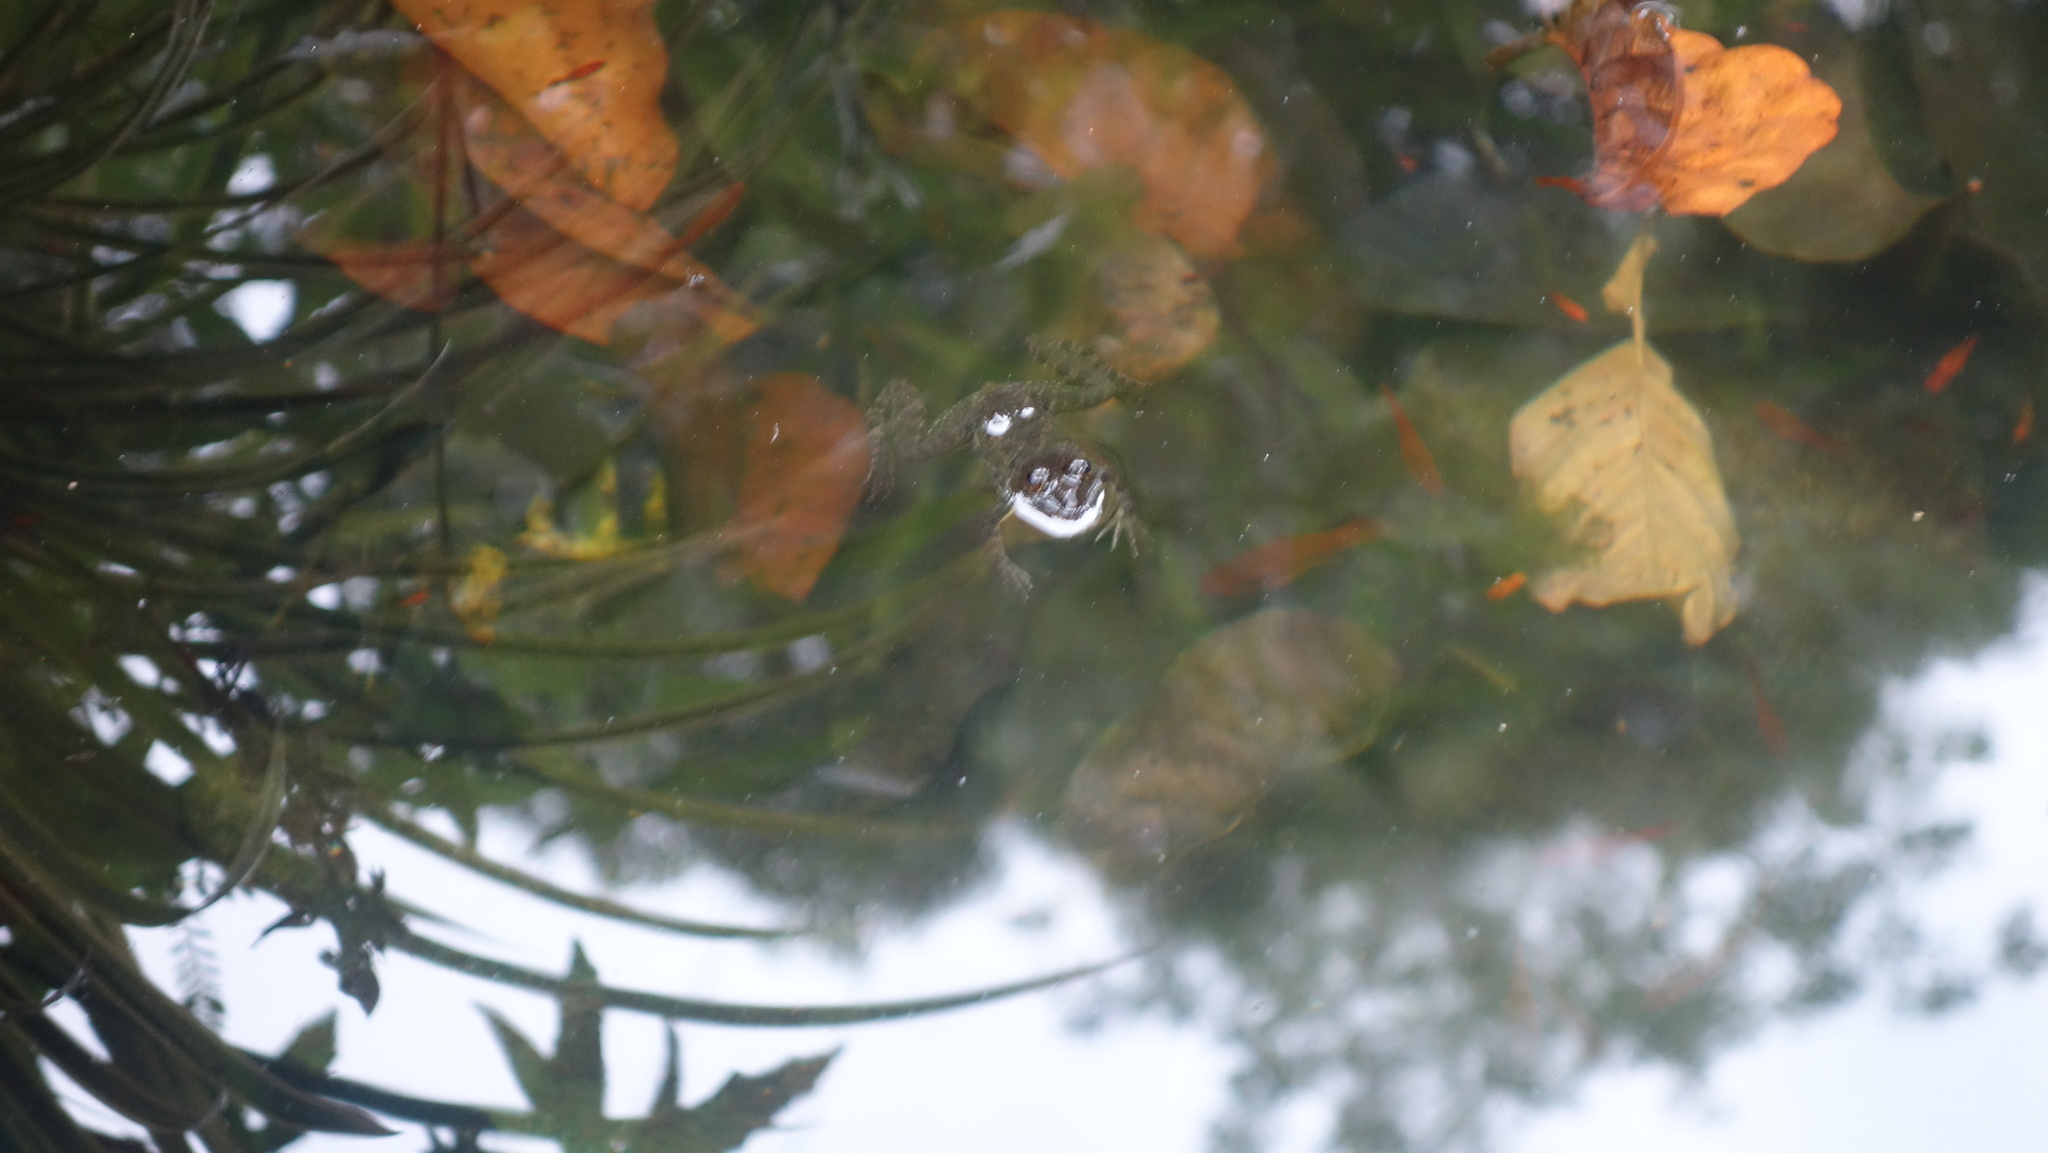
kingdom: Animalia
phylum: Chordata
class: Amphibia
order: Anura
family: Dicroglossidae
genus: Euphlyctis
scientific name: Euphlyctis cyanophlyctis
